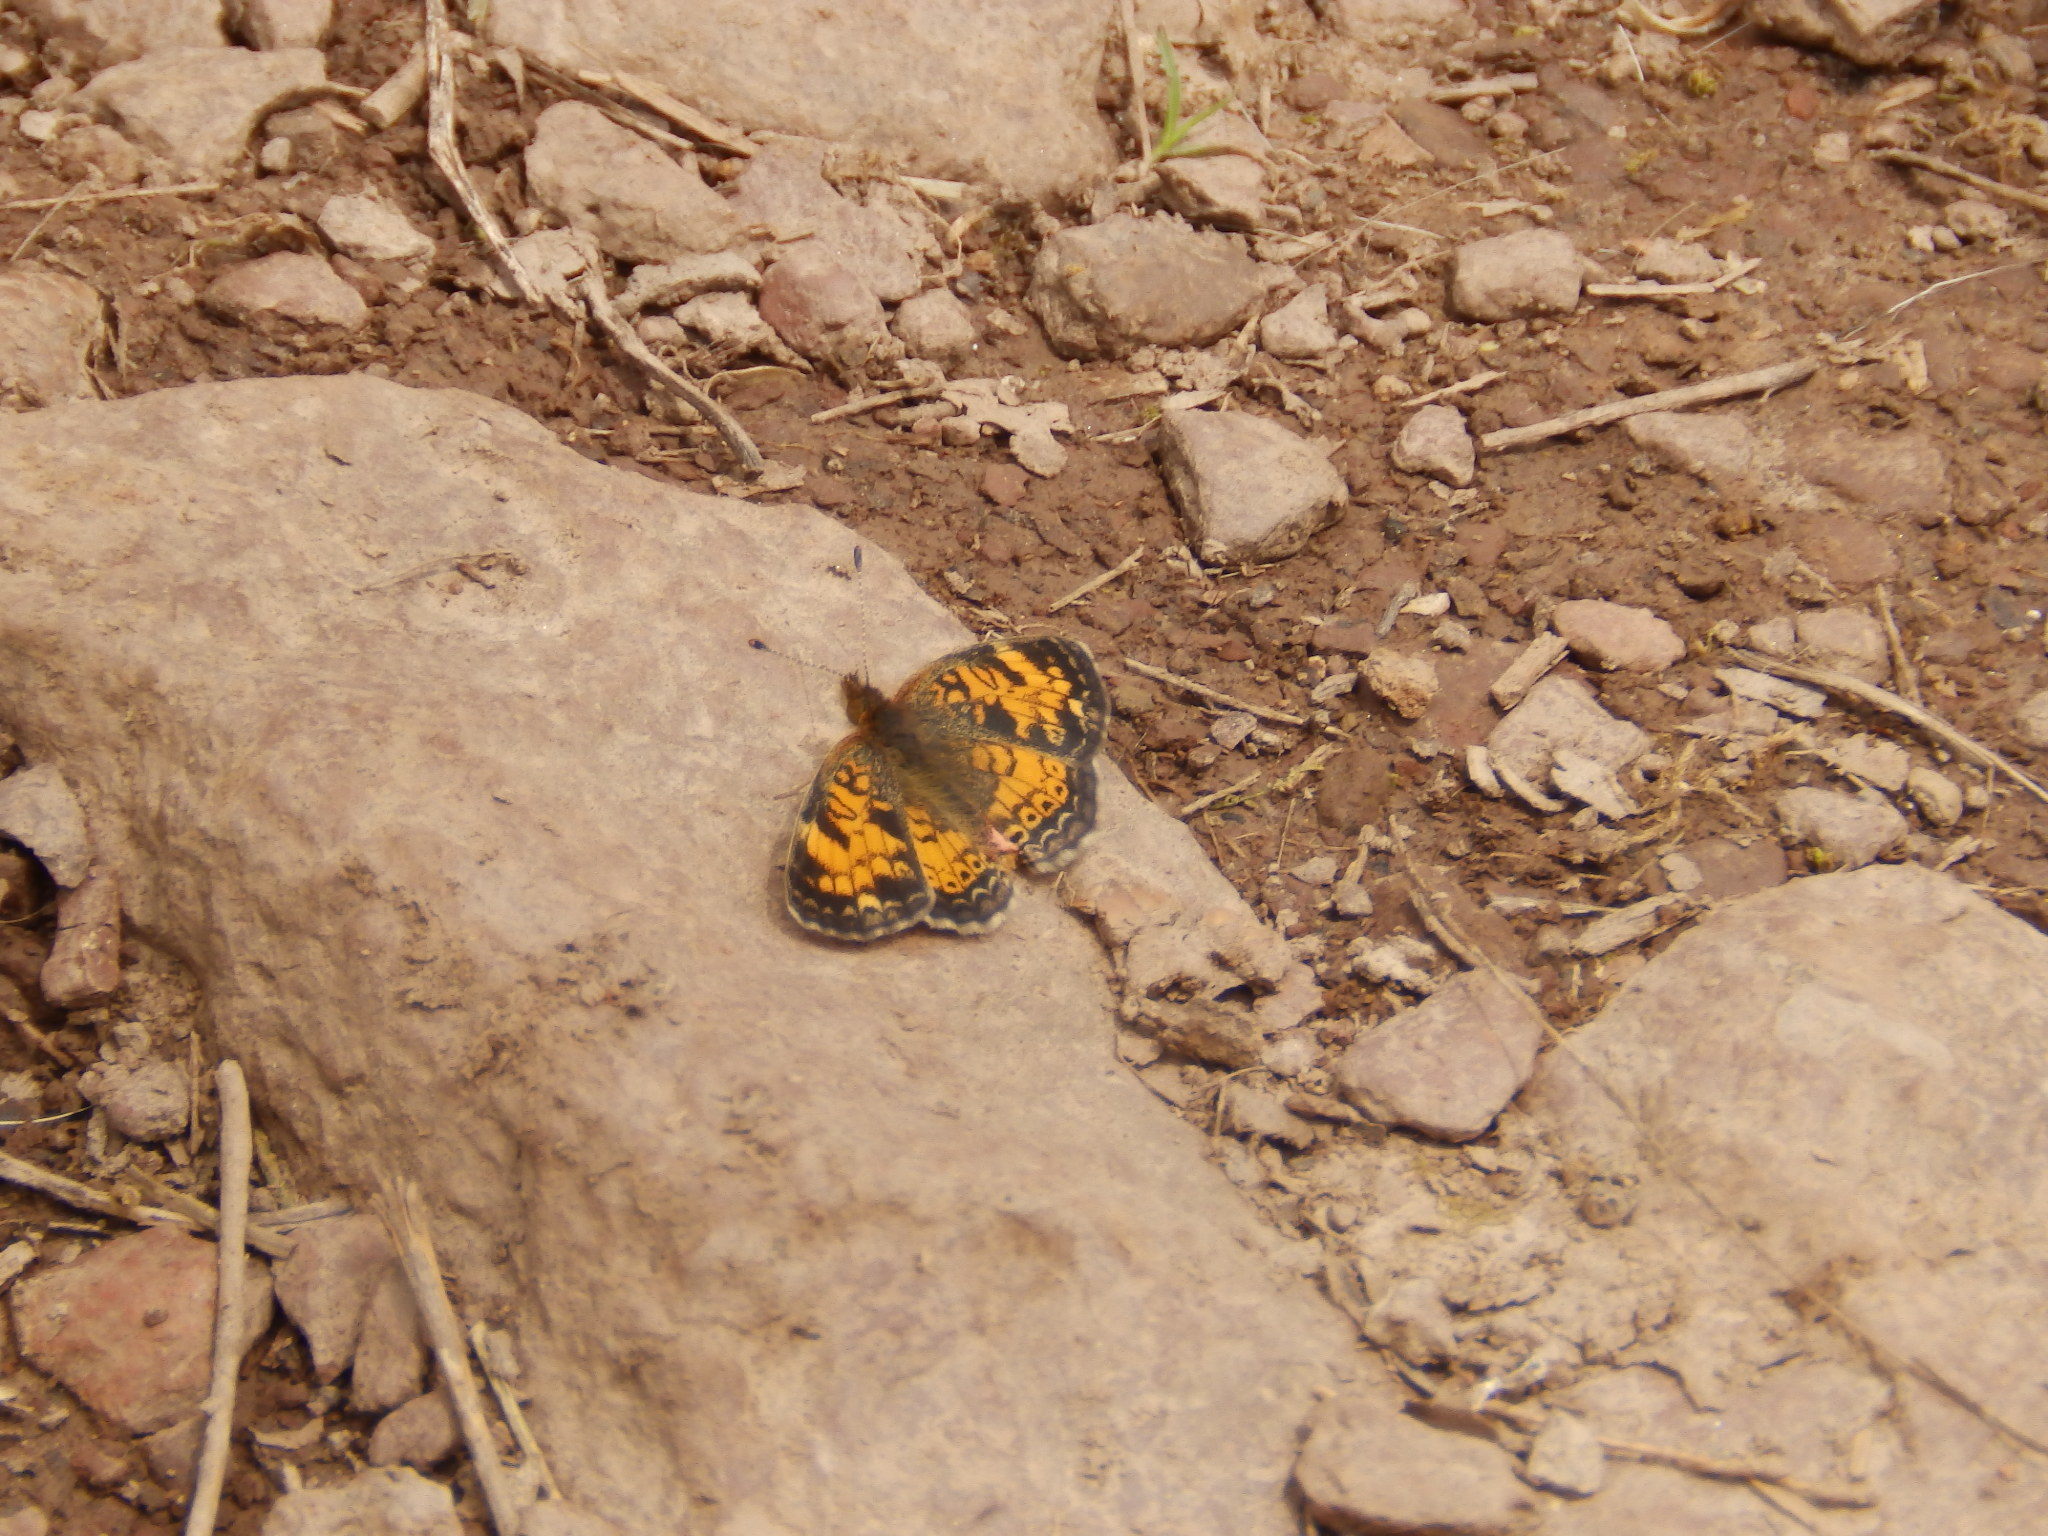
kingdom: Animalia
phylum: Arthropoda
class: Insecta
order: Lepidoptera
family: Nymphalidae
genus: Phyciodes
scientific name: Phyciodes tharos
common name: Pearl crescent
